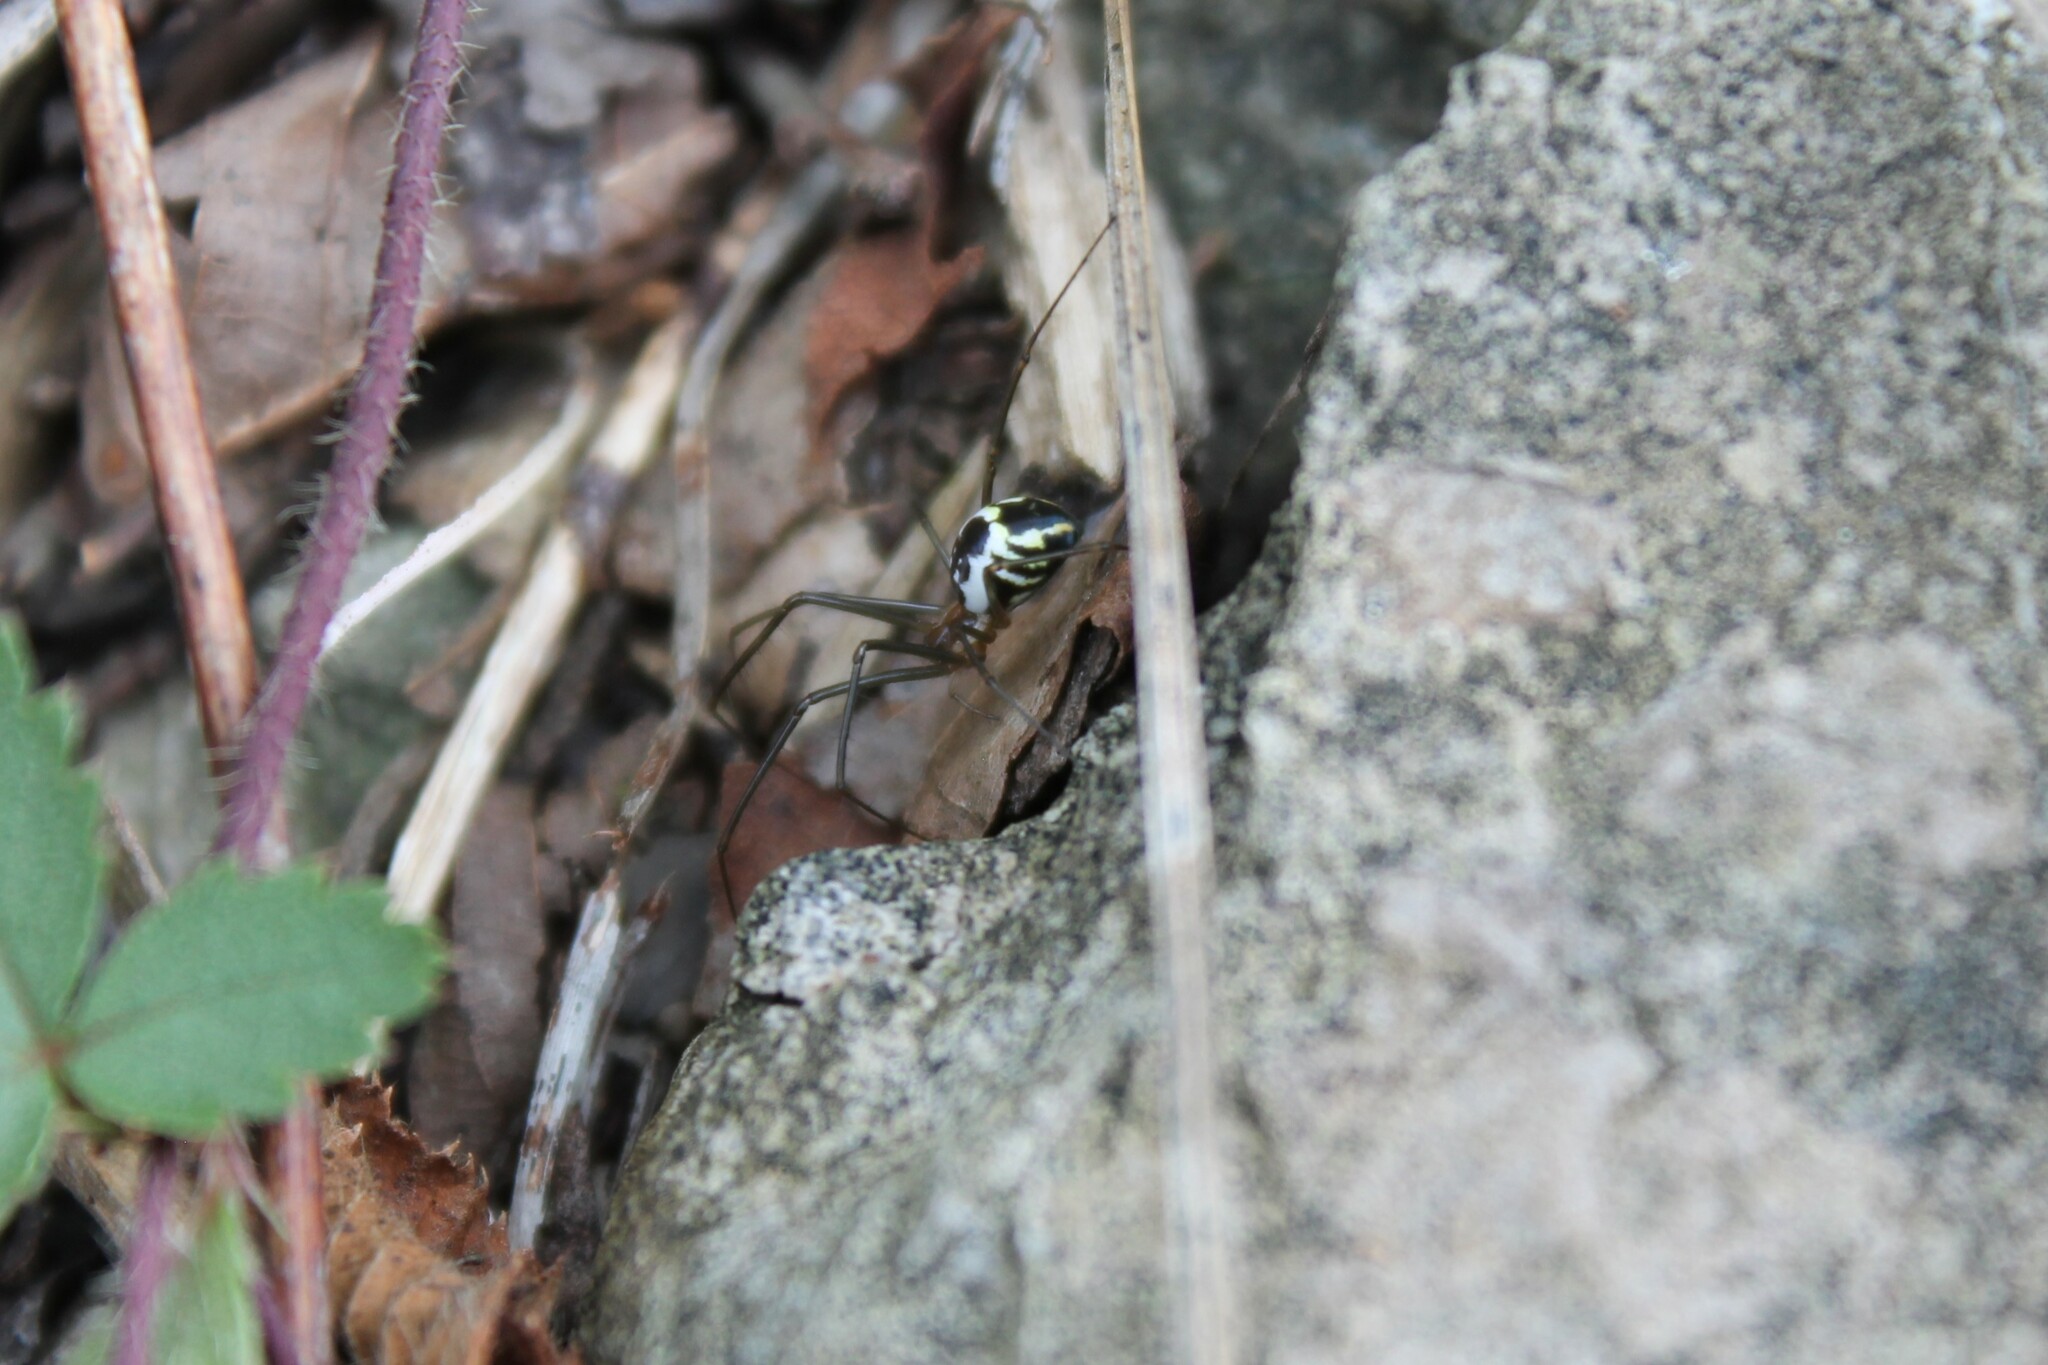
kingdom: Animalia
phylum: Arthropoda
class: Arachnida
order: Araneae
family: Linyphiidae
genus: Neriene
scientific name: Neriene radiata
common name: Filmy dome spider
